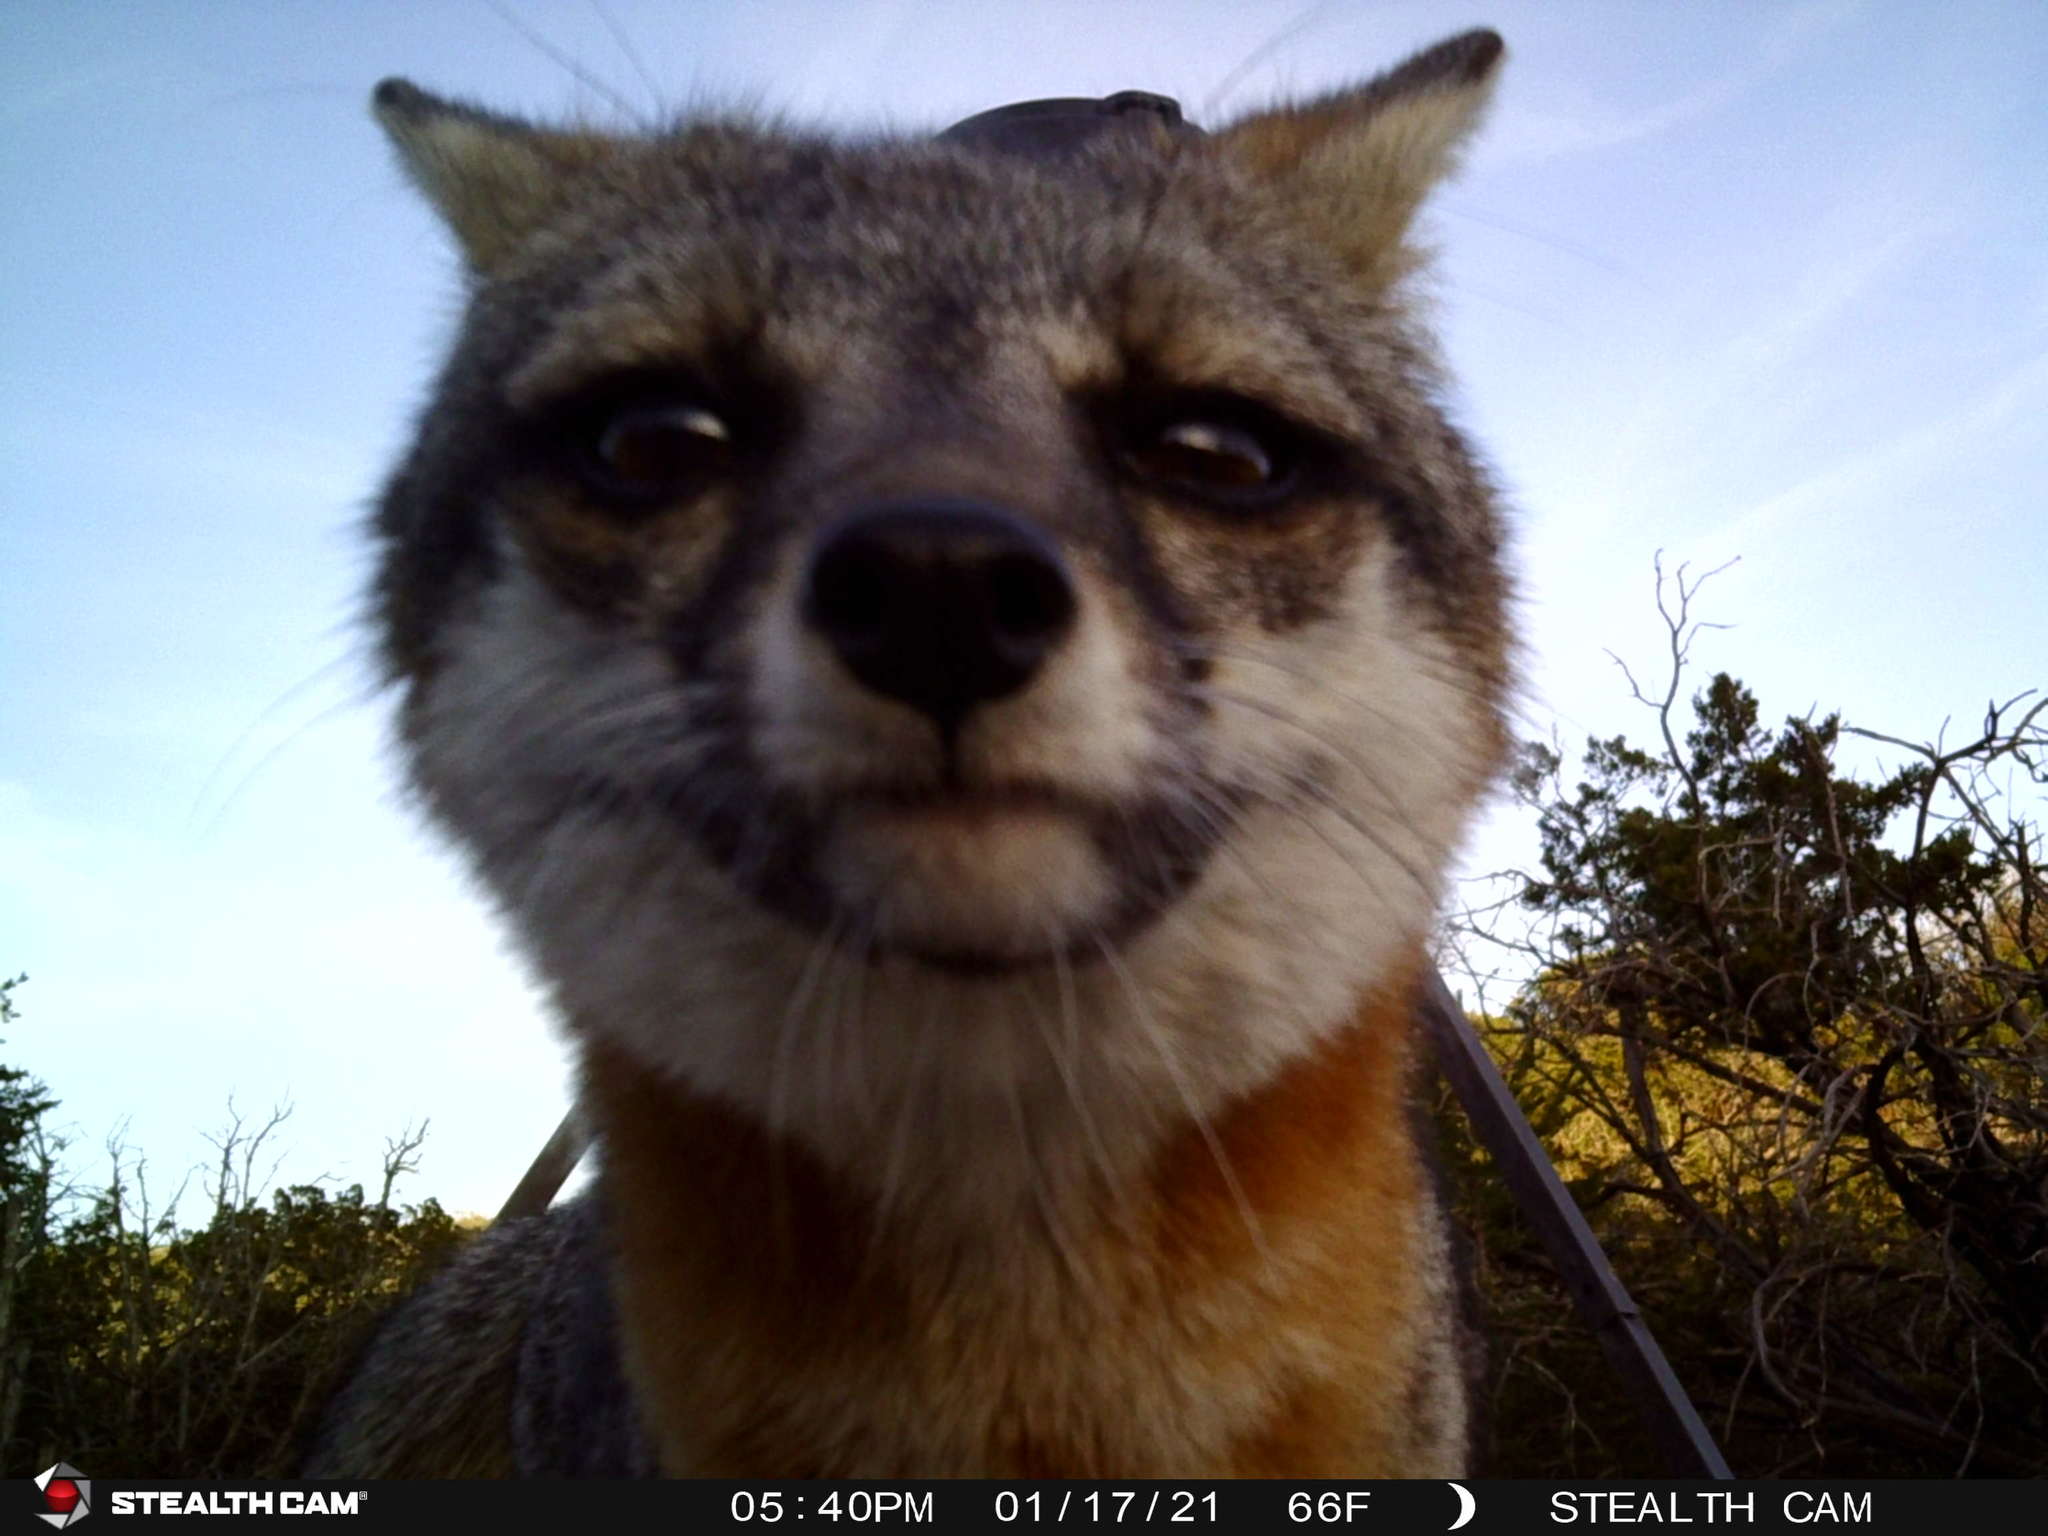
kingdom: Animalia
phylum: Chordata
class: Mammalia
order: Carnivora
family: Canidae
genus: Urocyon
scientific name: Urocyon cinereoargenteus
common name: Gray fox
